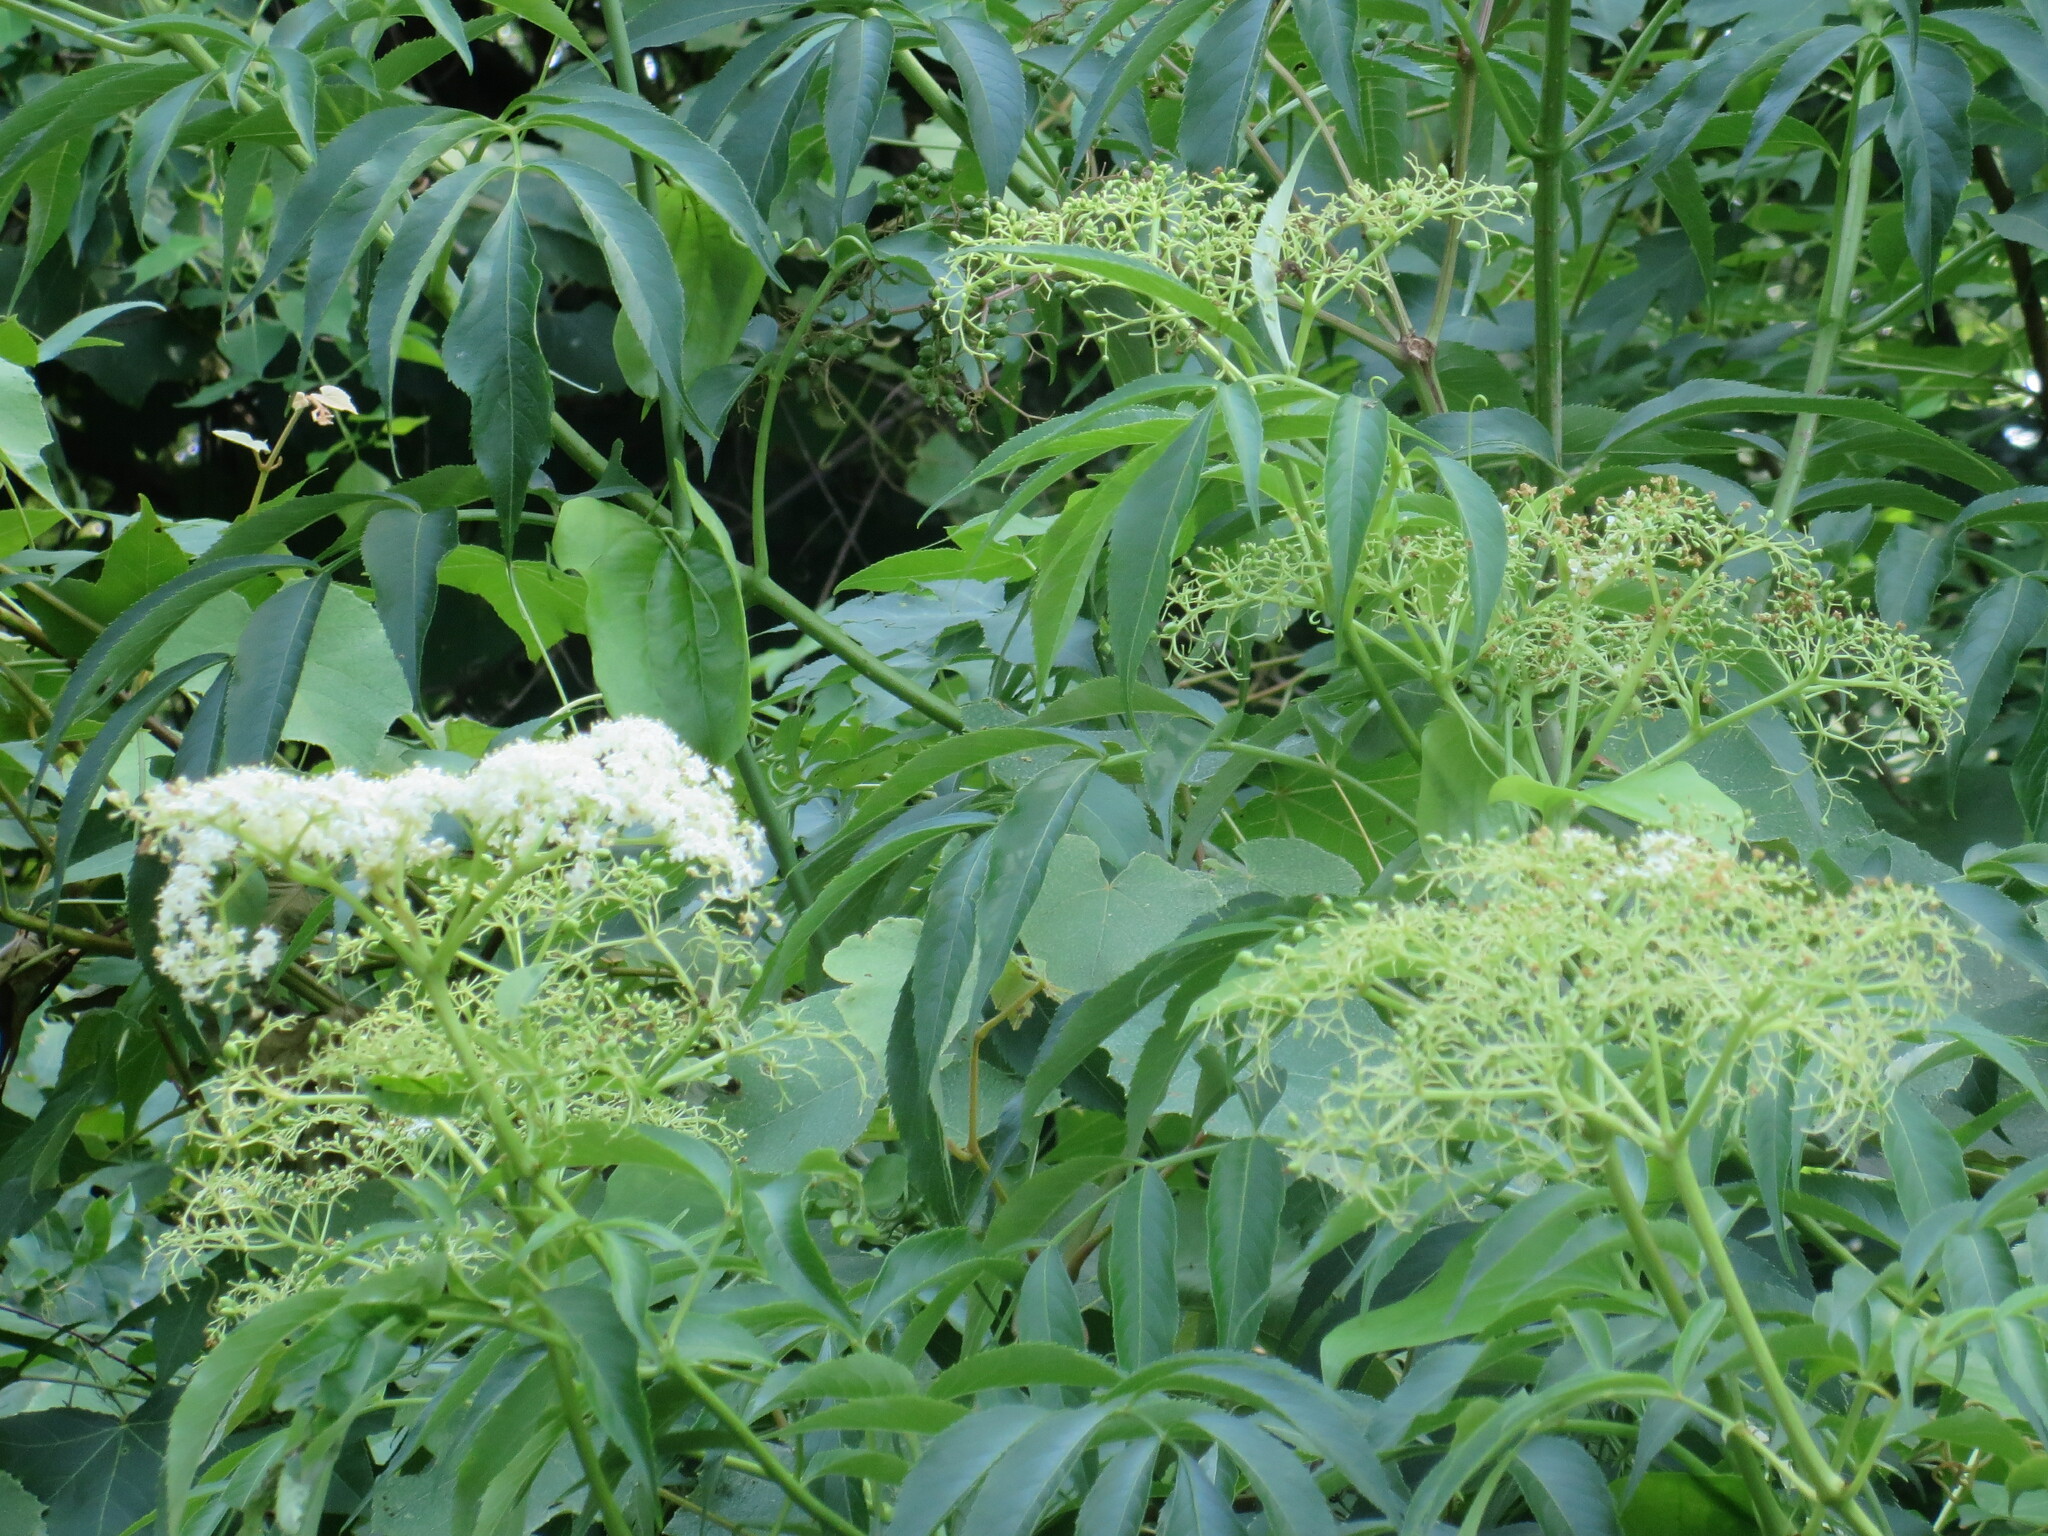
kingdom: Plantae
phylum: Tracheophyta
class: Magnoliopsida
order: Dipsacales
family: Viburnaceae
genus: Sambucus
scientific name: Sambucus canadensis
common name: American elder
